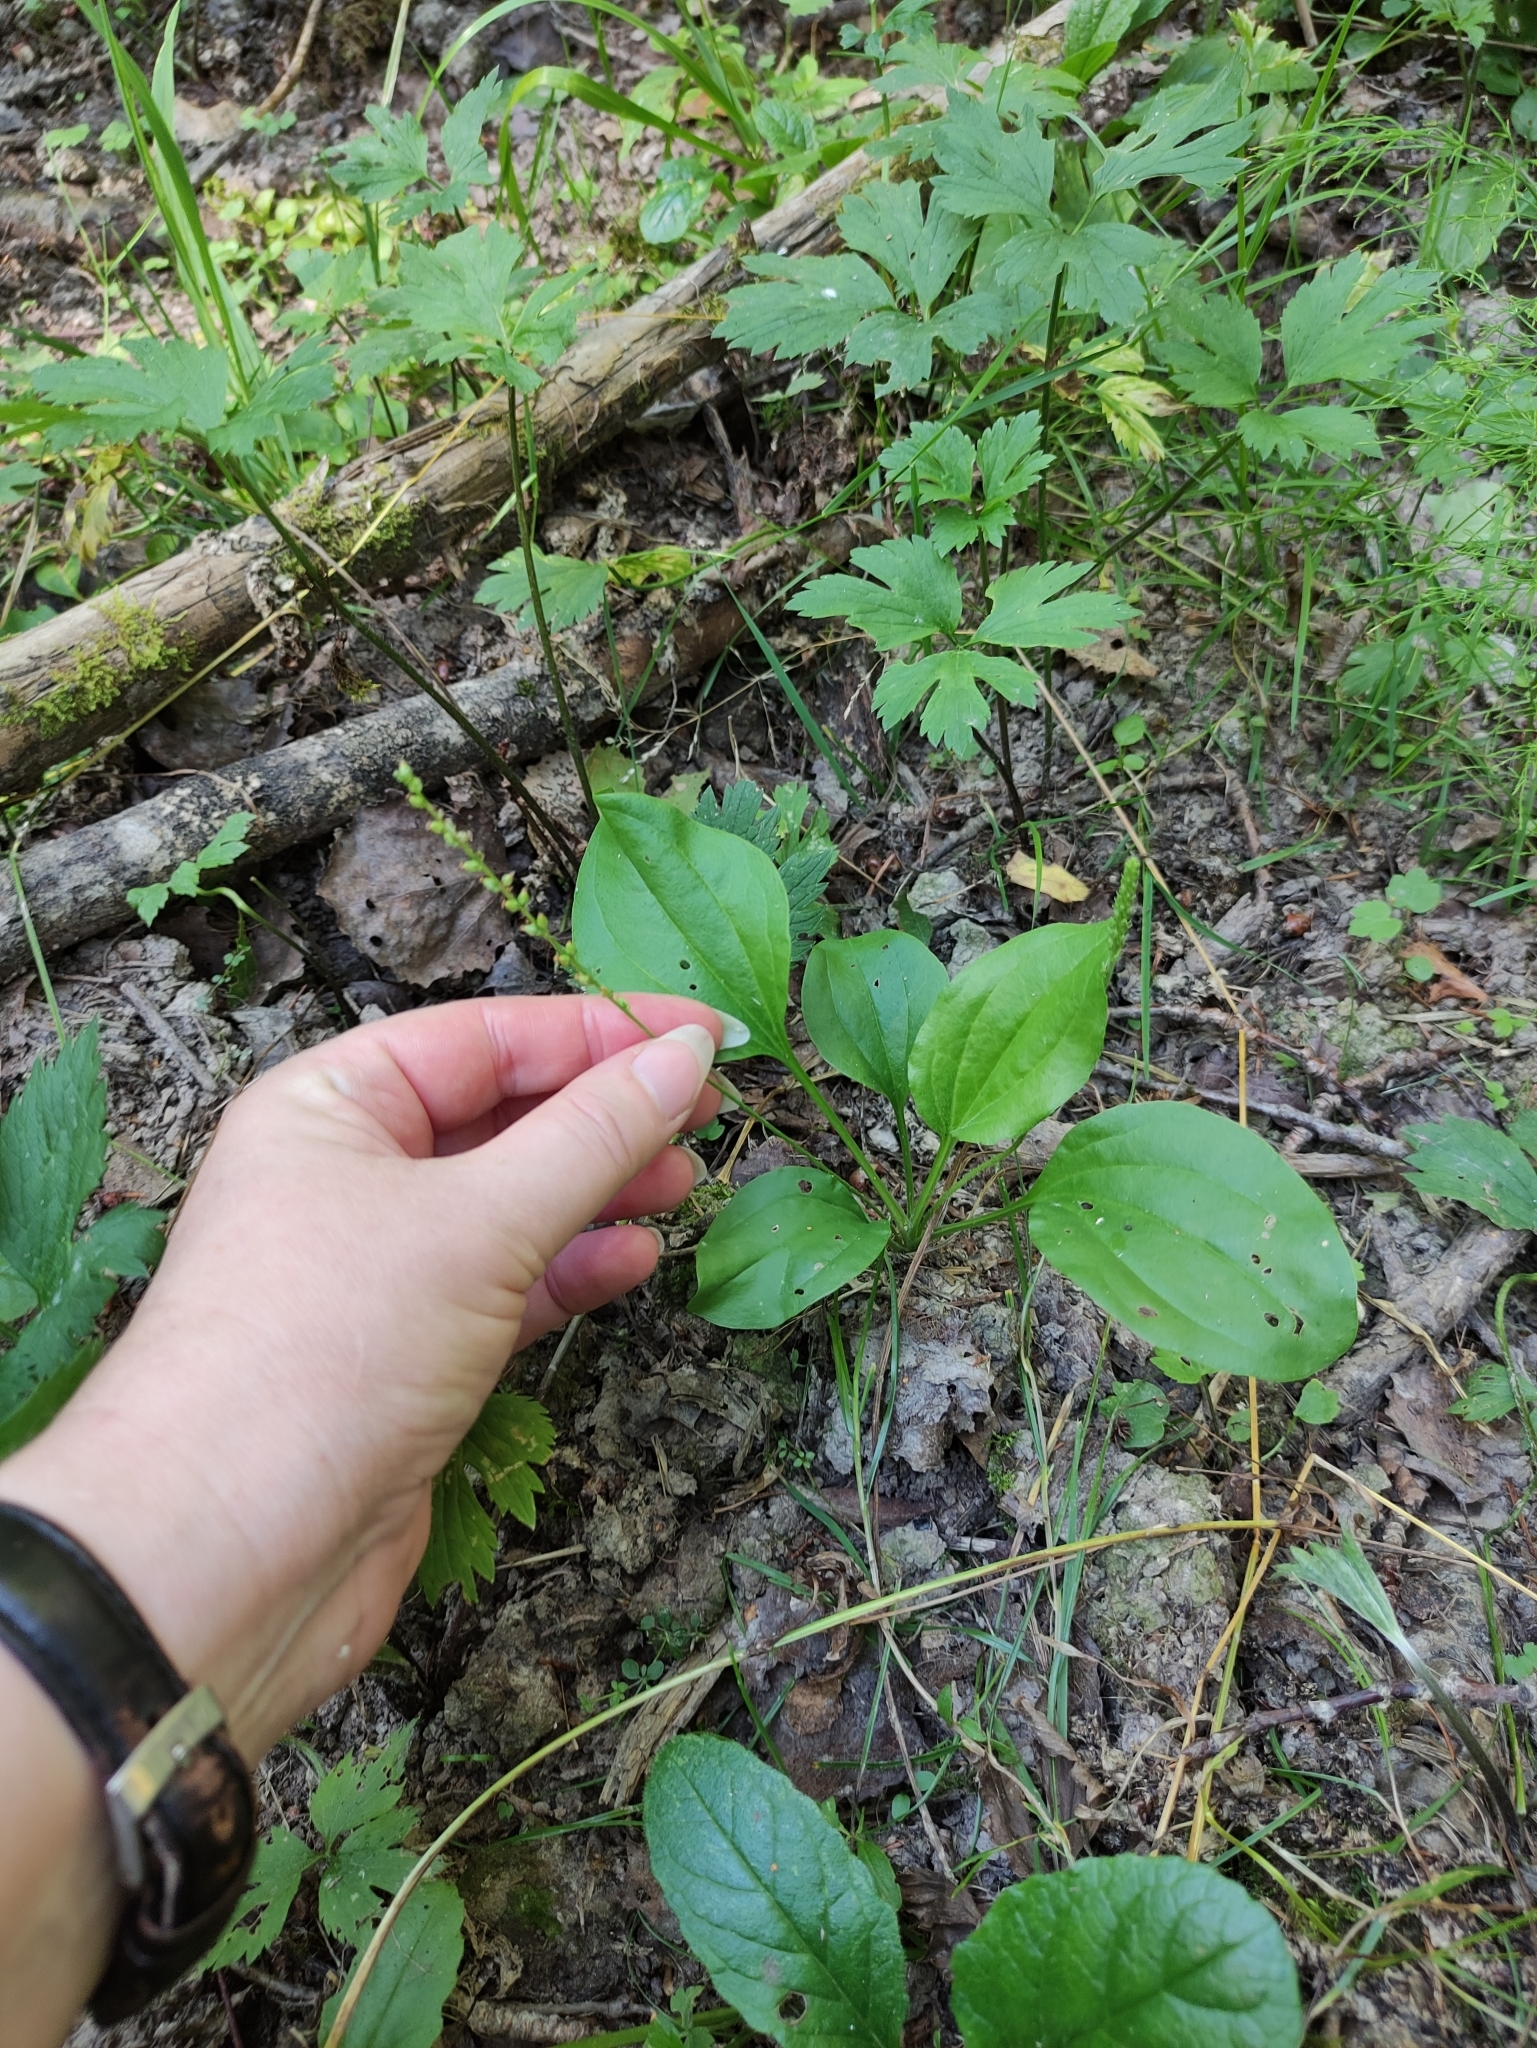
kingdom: Plantae
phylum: Tracheophyta
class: Magnoliopsida
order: Lamiales
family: Plantaginaceae
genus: Plantago
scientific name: Plantago major
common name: Common plantain
